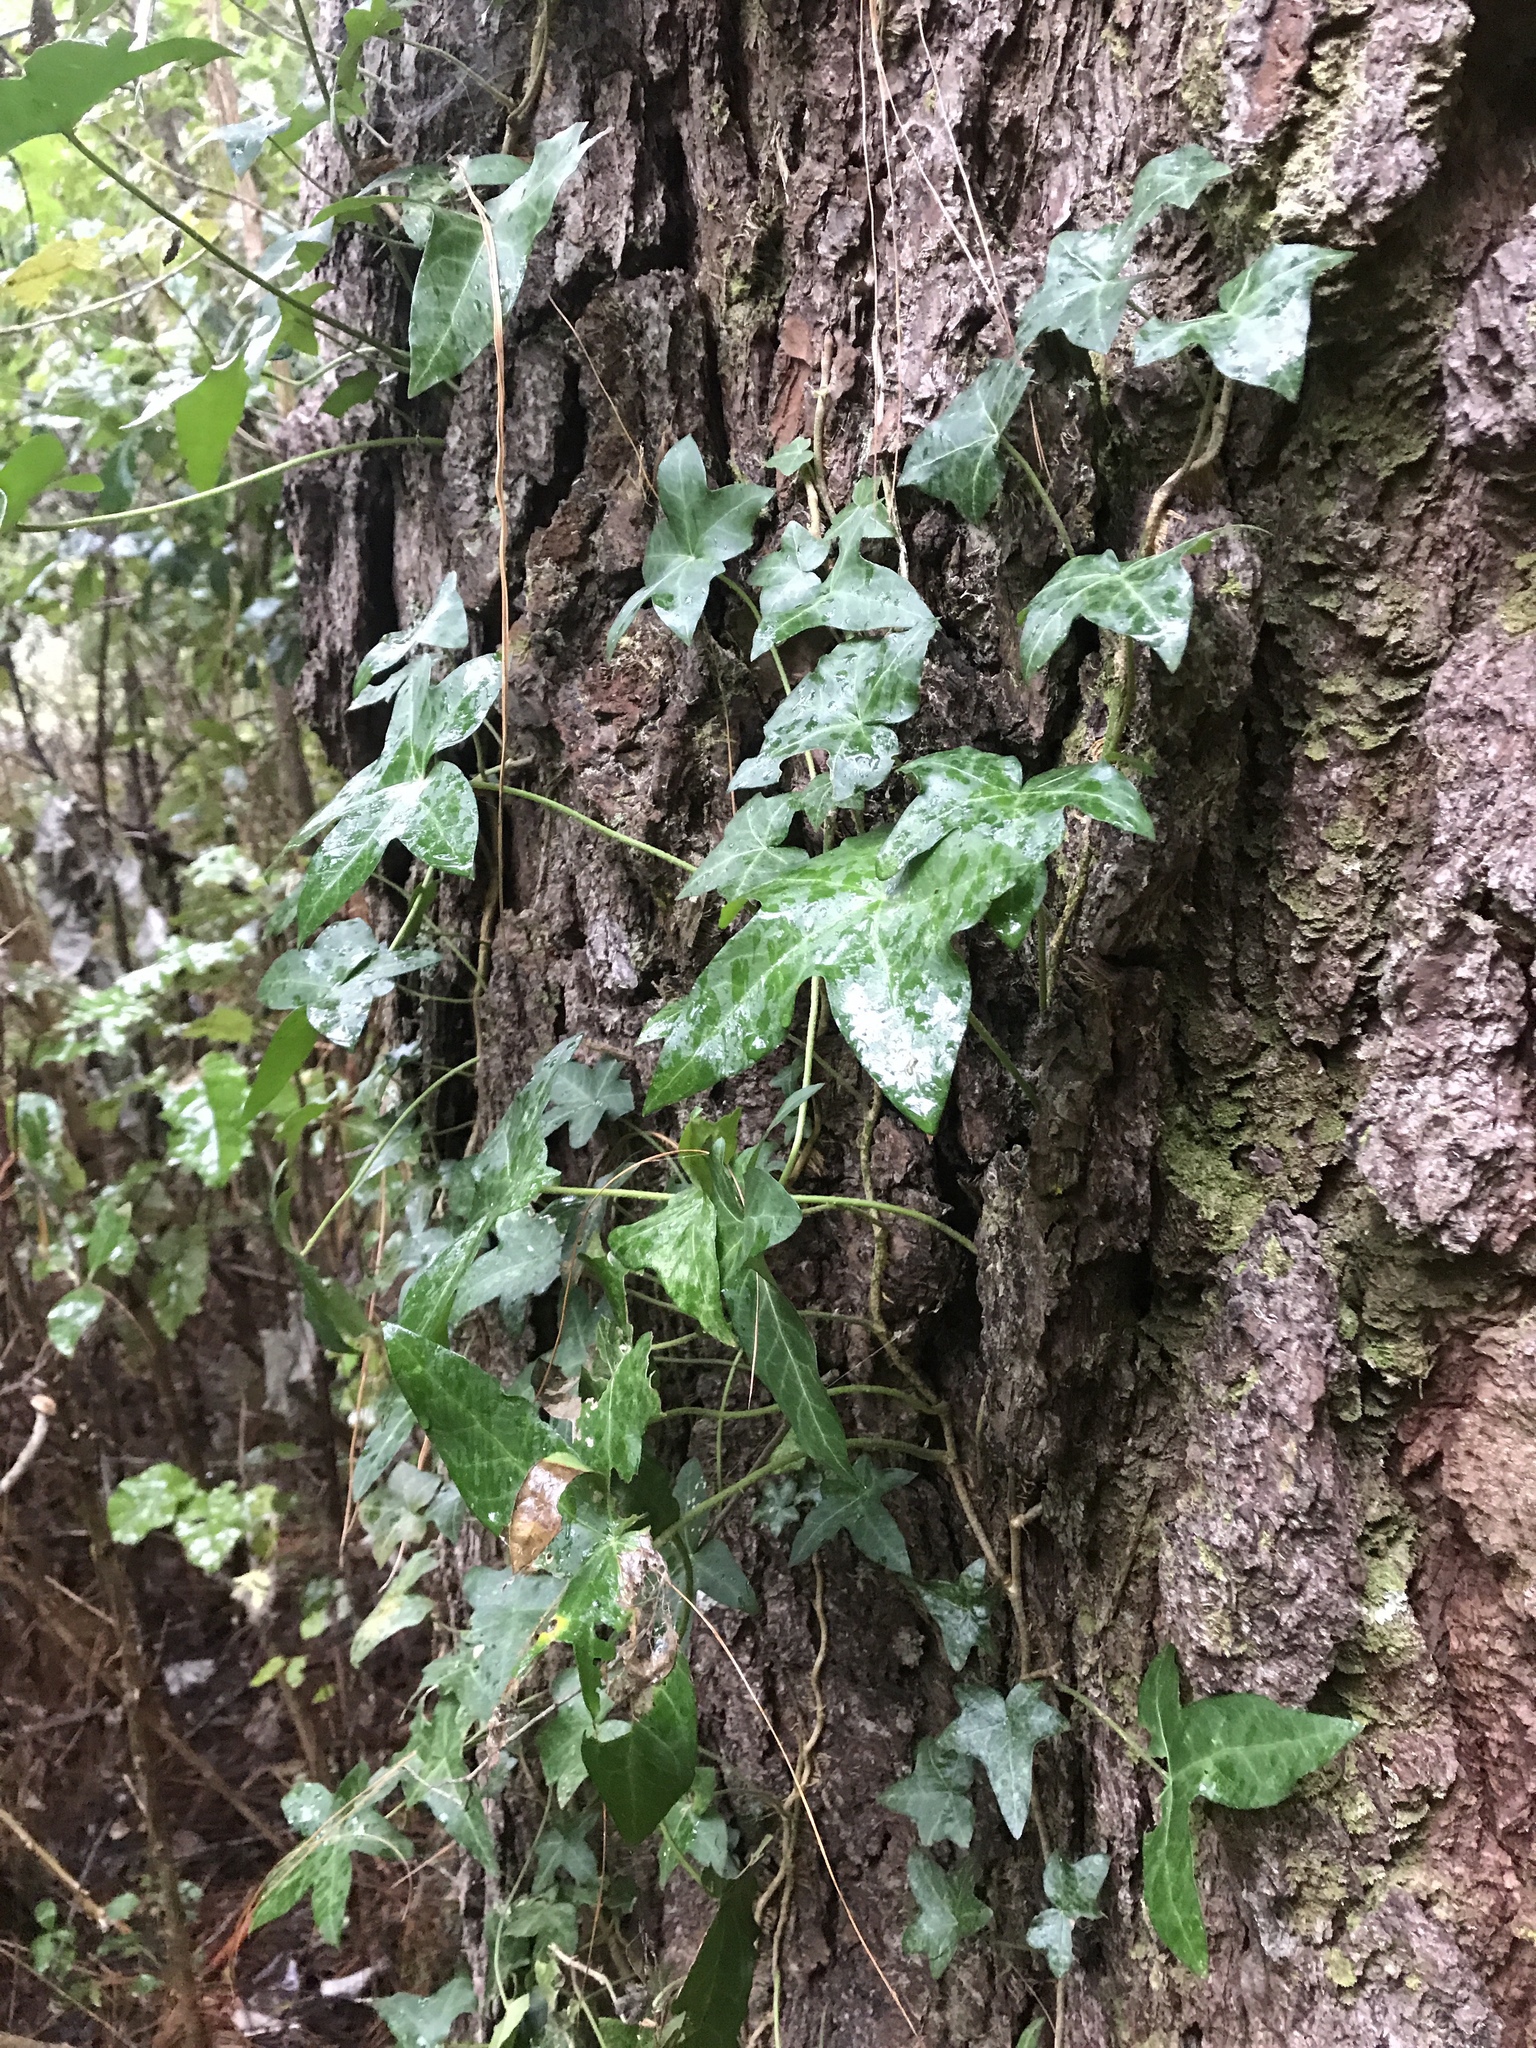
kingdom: Plantae
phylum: Tracheophyta
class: Magnoliopsida
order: Apiales
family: Araliaceae
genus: Hedera
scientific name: Hedera helix
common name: Ivy
